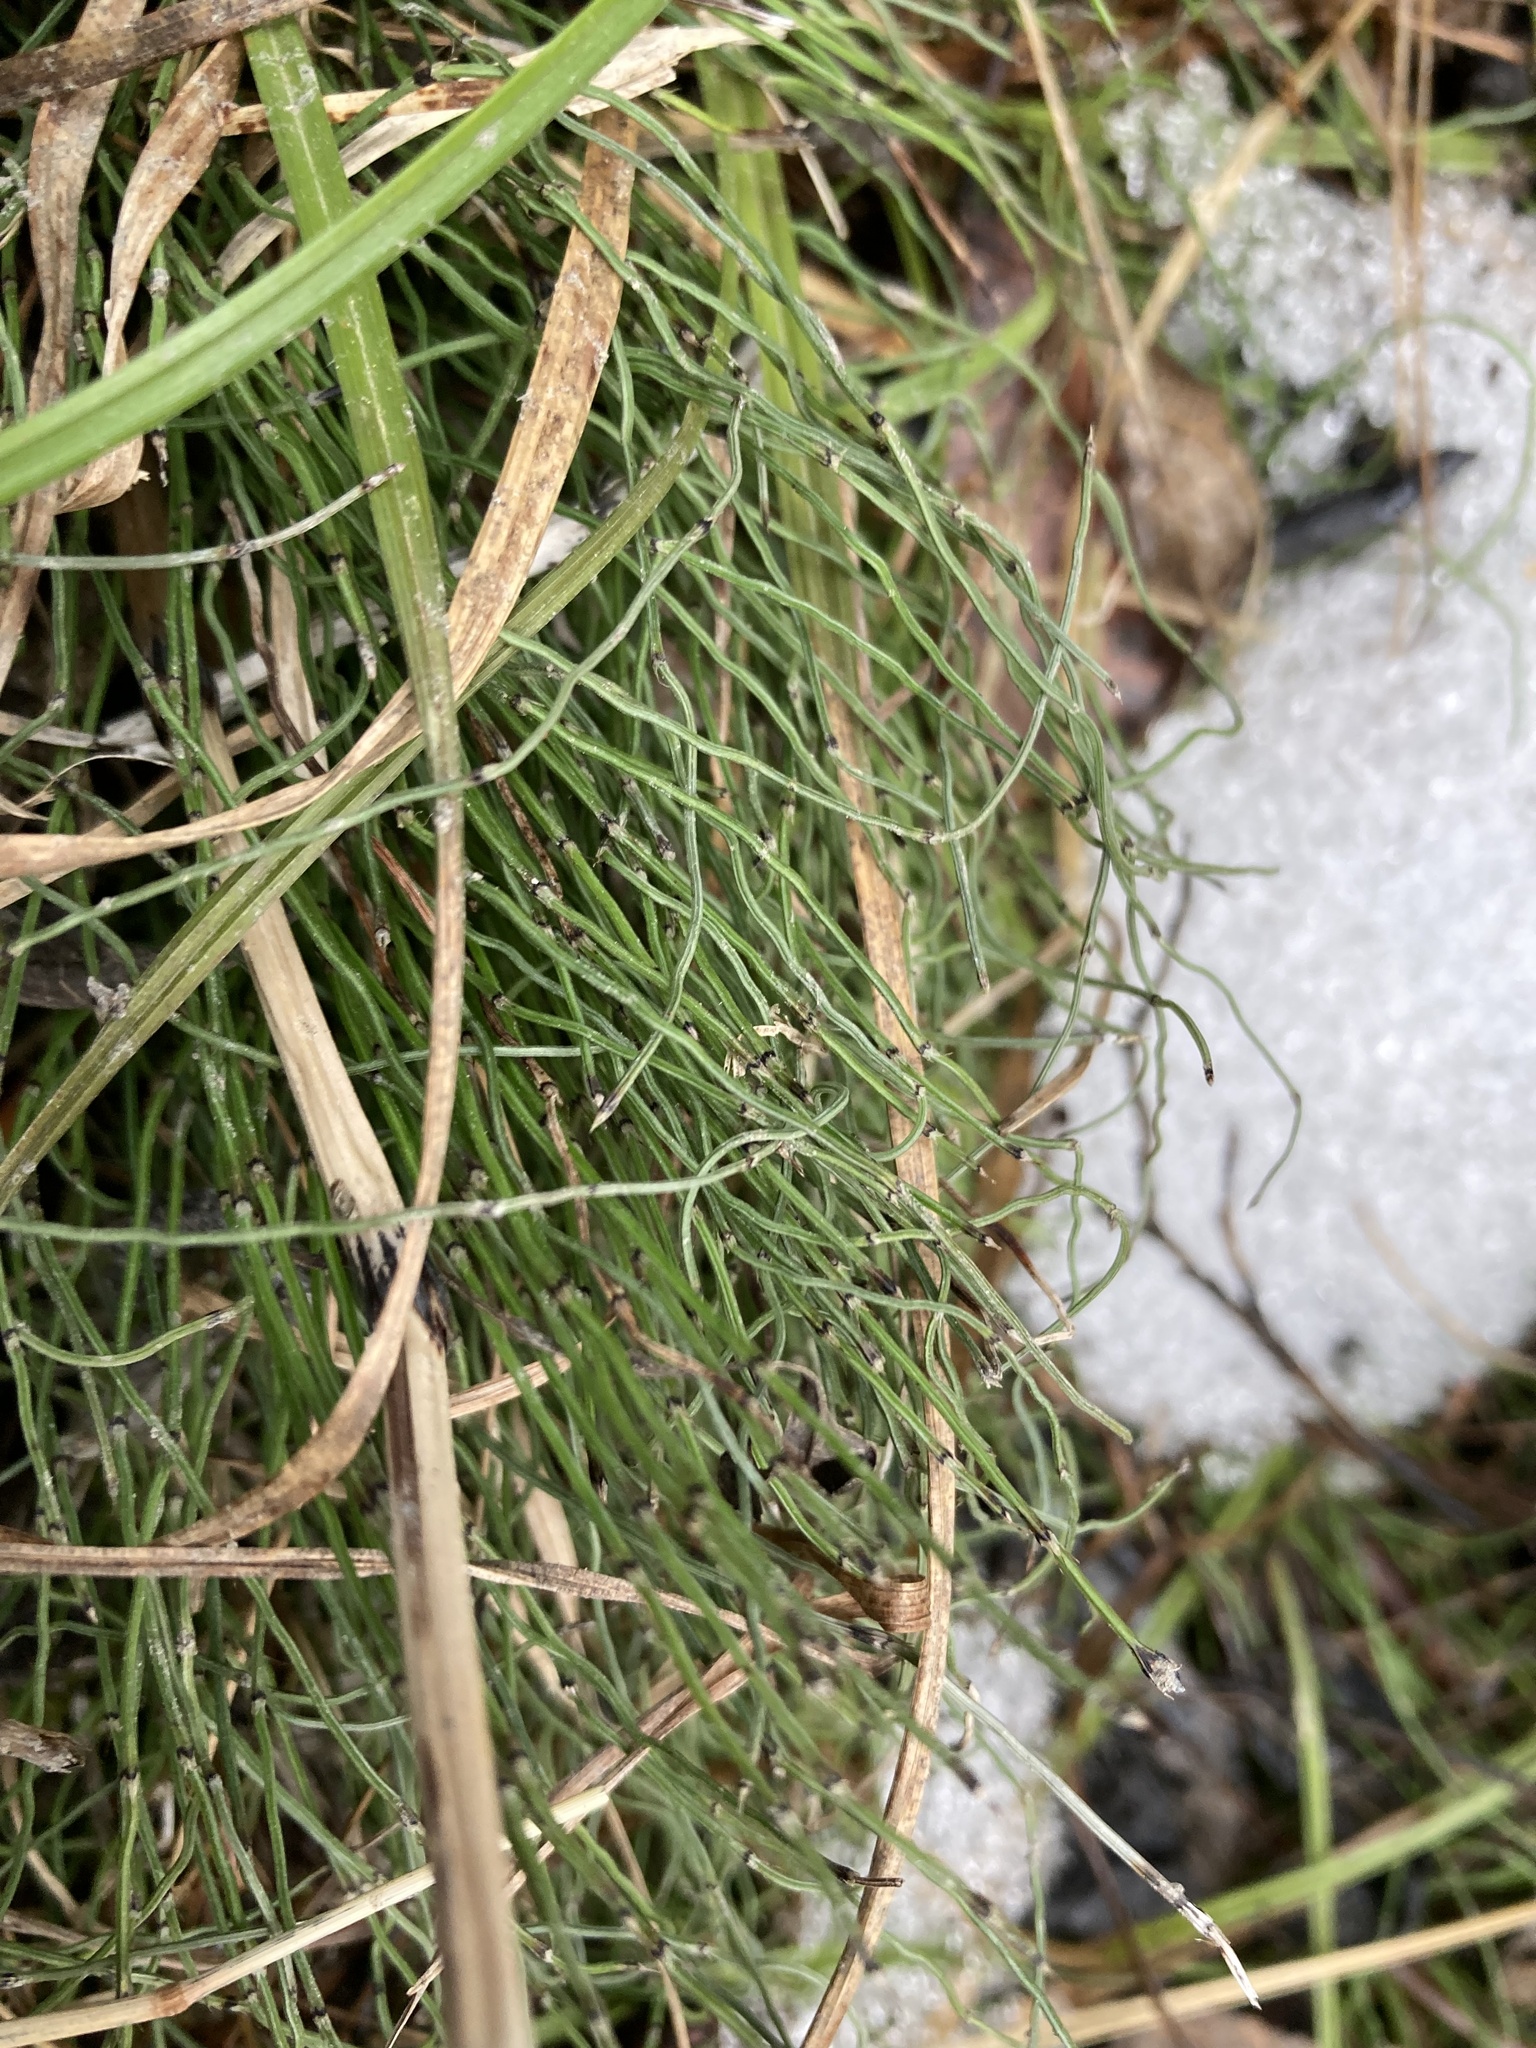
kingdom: Plantae
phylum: Tracheophyta
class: Polypodiopsida
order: Equisetales
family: Equisetaceae
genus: Equisetum
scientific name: Equisetum scirpoides
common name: Delicate horsetail
